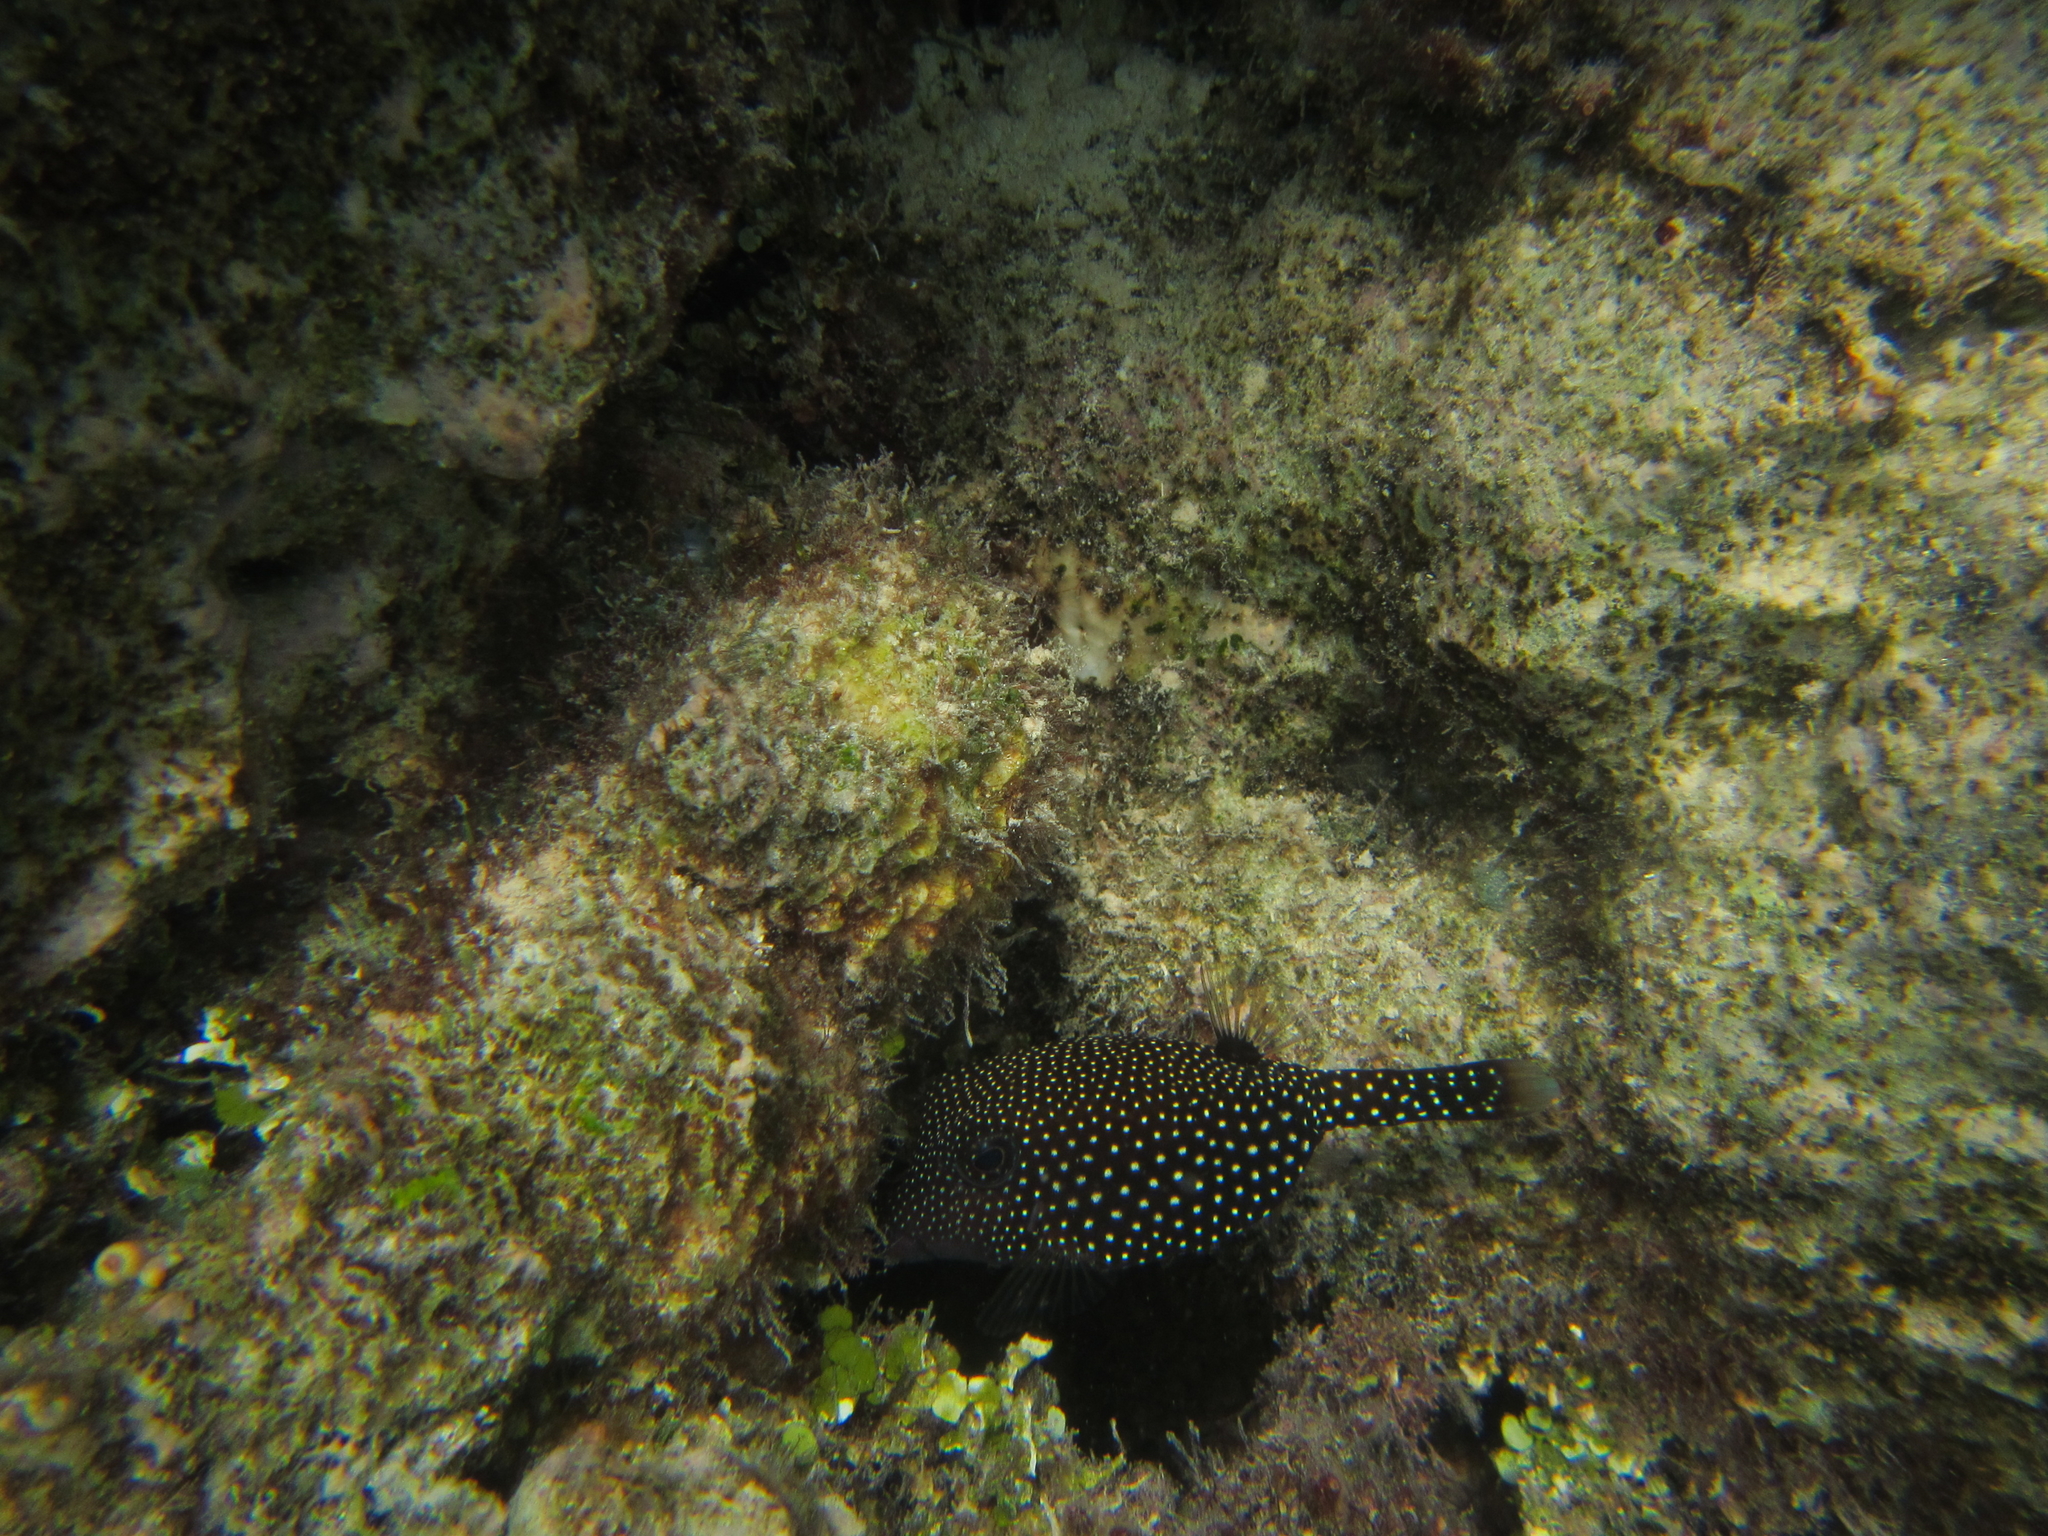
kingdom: Animalia
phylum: Chordata
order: Tetraodontiformes
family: Ostraciidae
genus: Ostracion
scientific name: Ostracion meleagris
